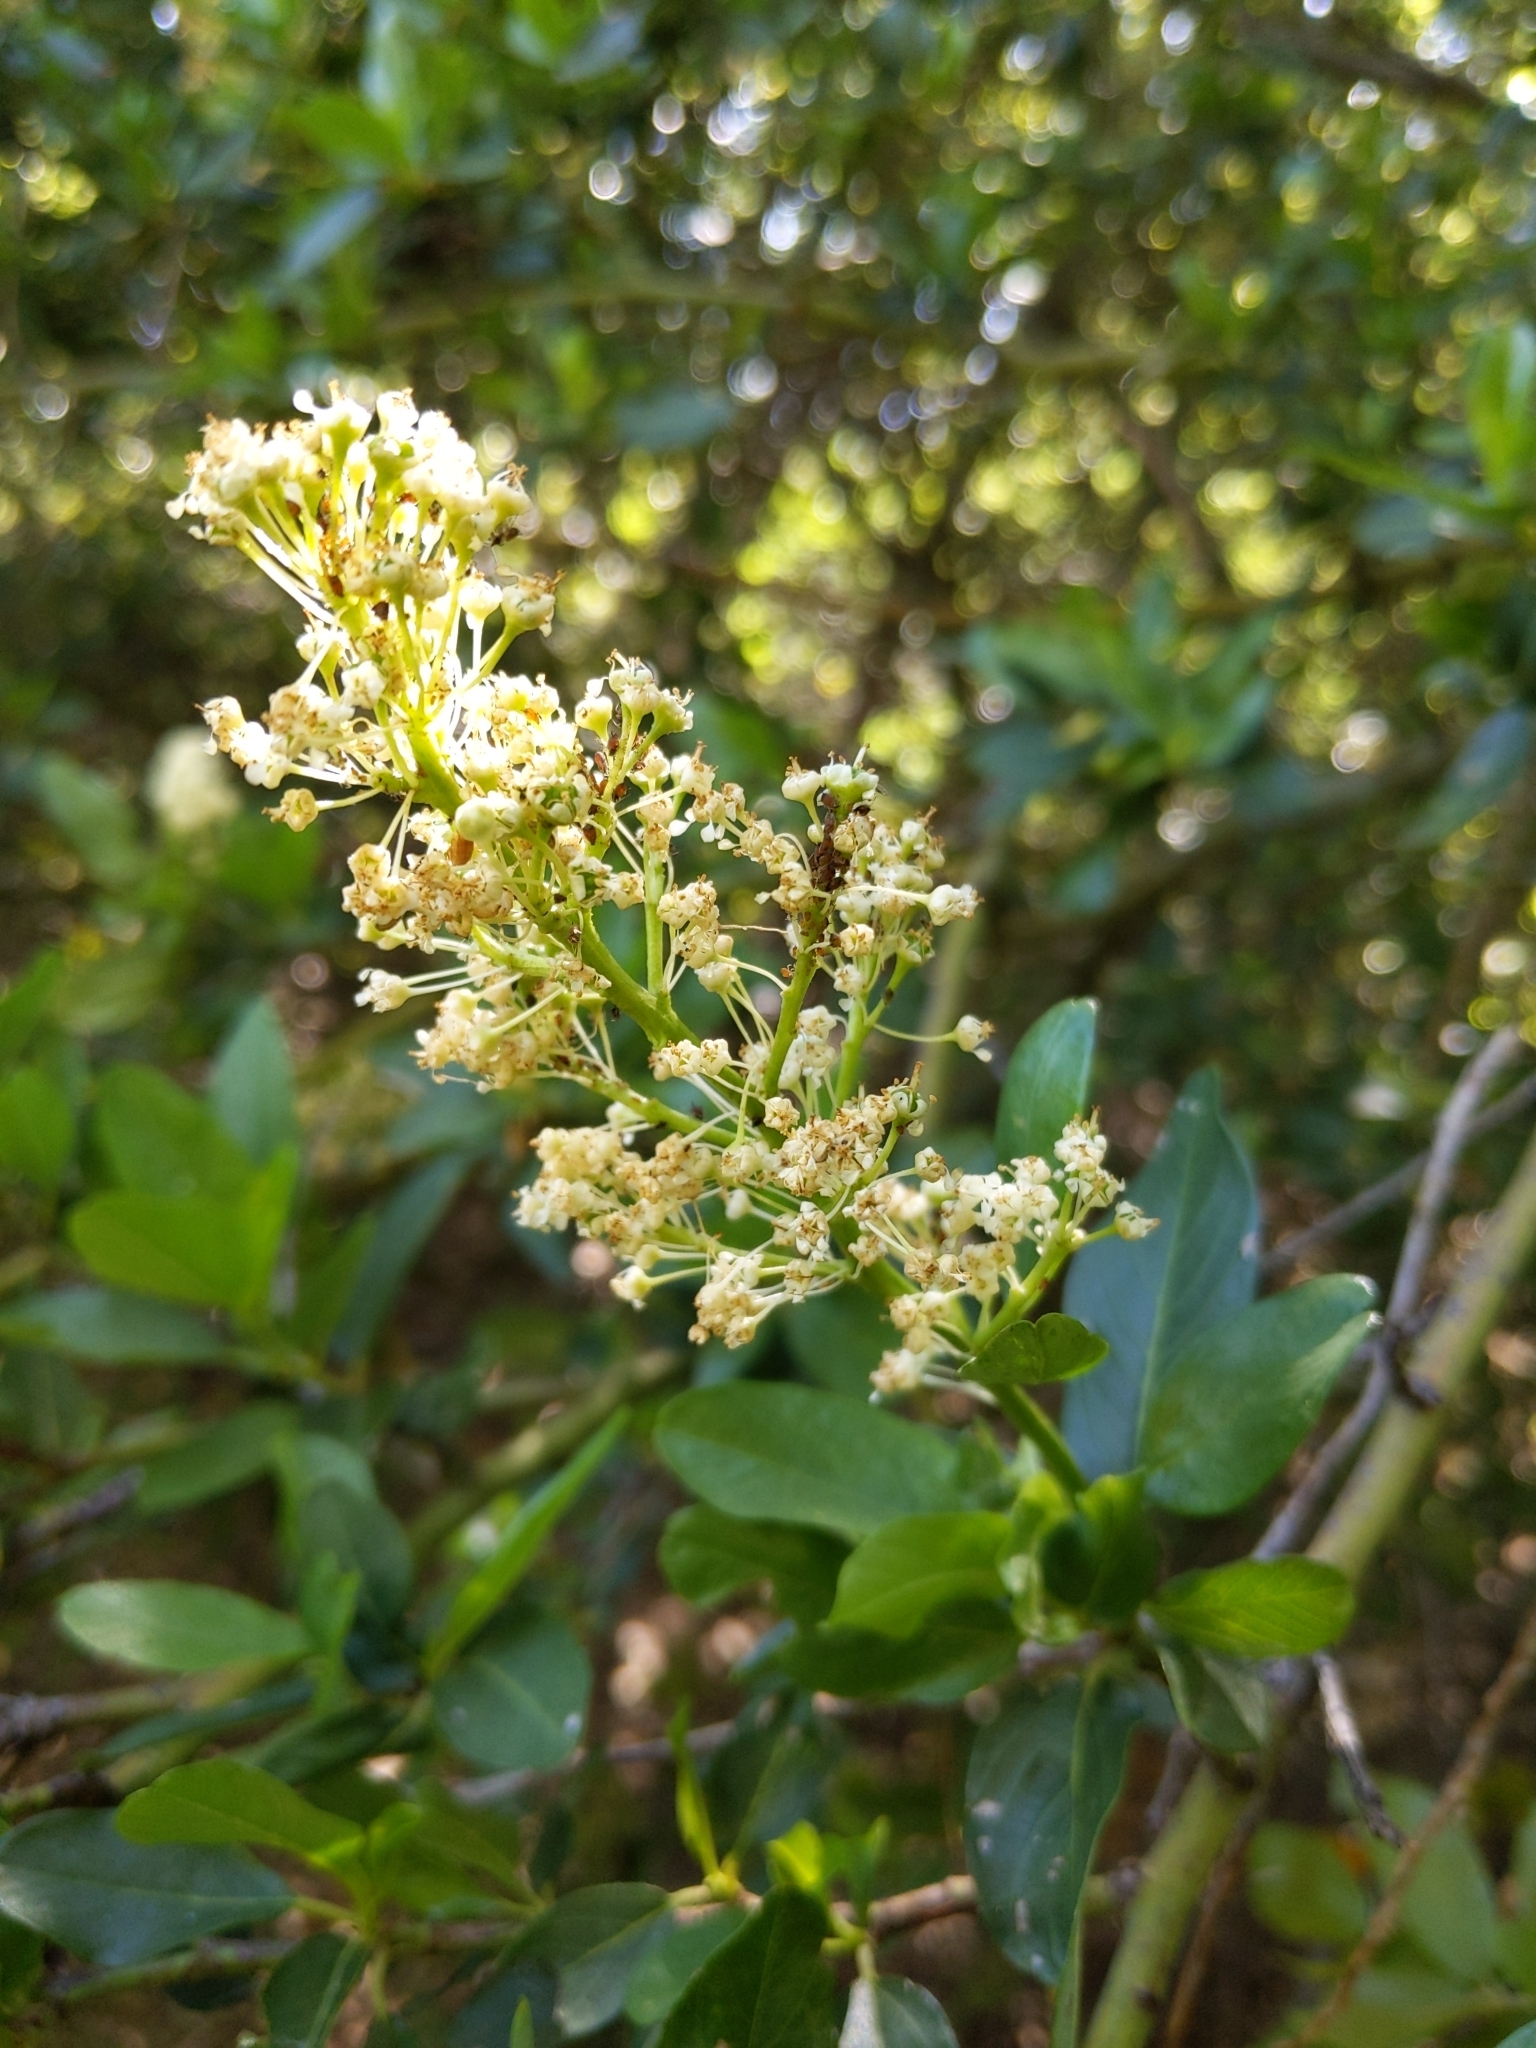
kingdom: Plantae
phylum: Tracheophyta
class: Magnoliopsida
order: Rosales
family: Rhamnaceae
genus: Ceanothus
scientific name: Ceanothus palmeri
